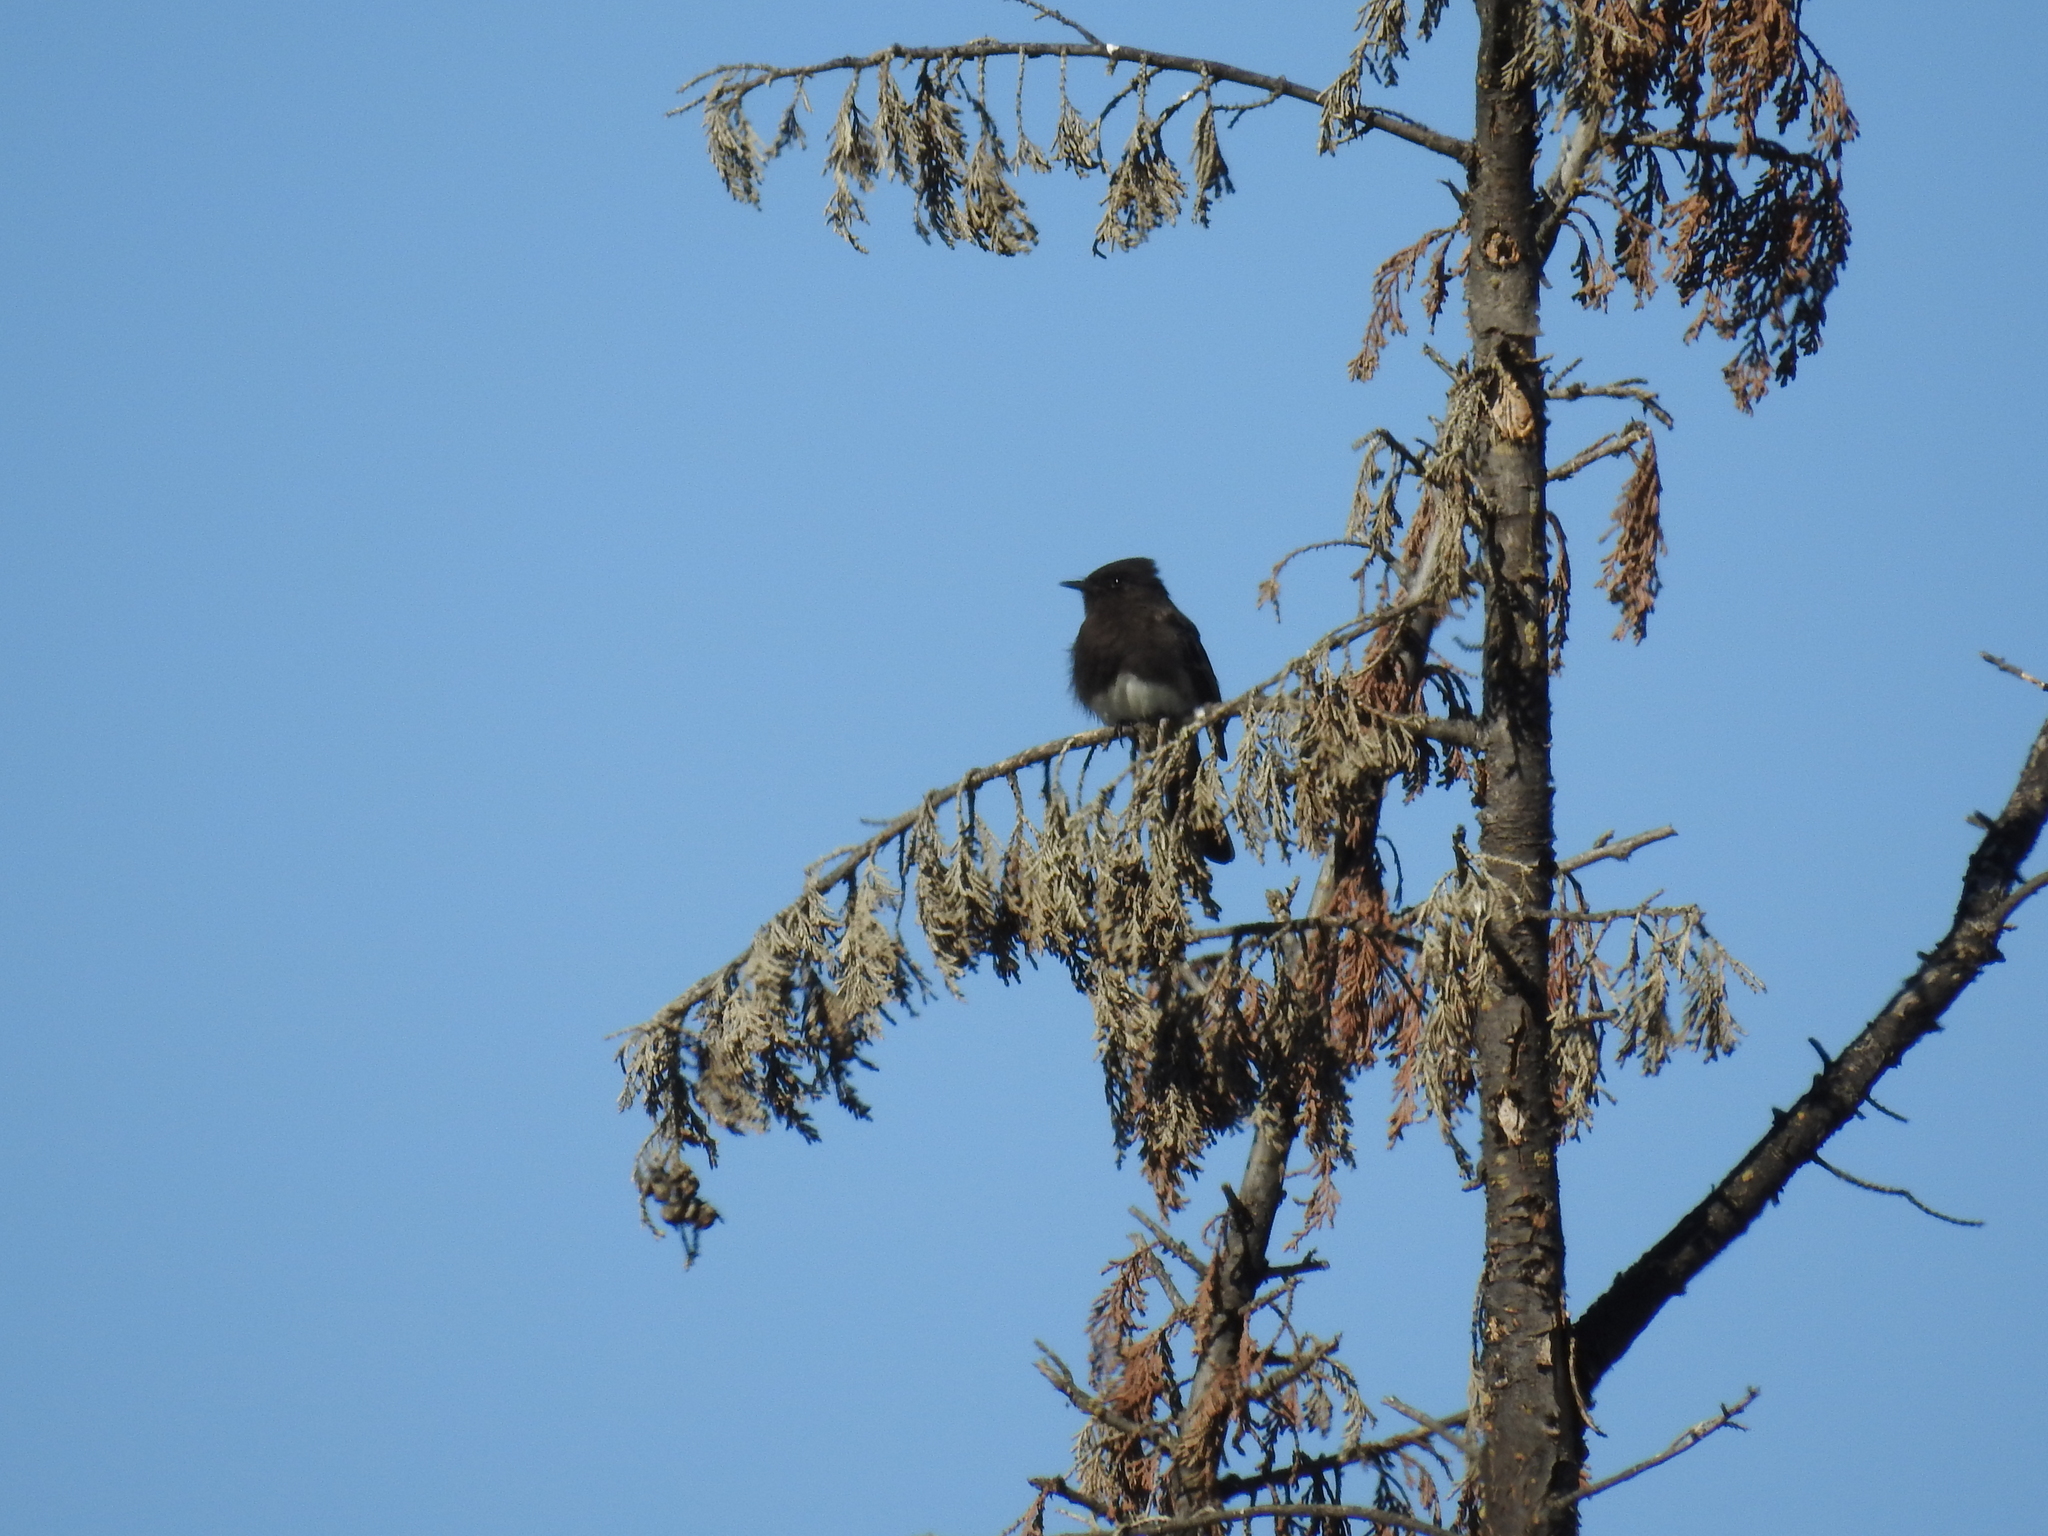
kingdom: Animalia
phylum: Chordata
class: Aves
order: Passeriformes
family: Tyrannidae
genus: Sayornis
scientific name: Sayornis nigricans
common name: Black phoebe
